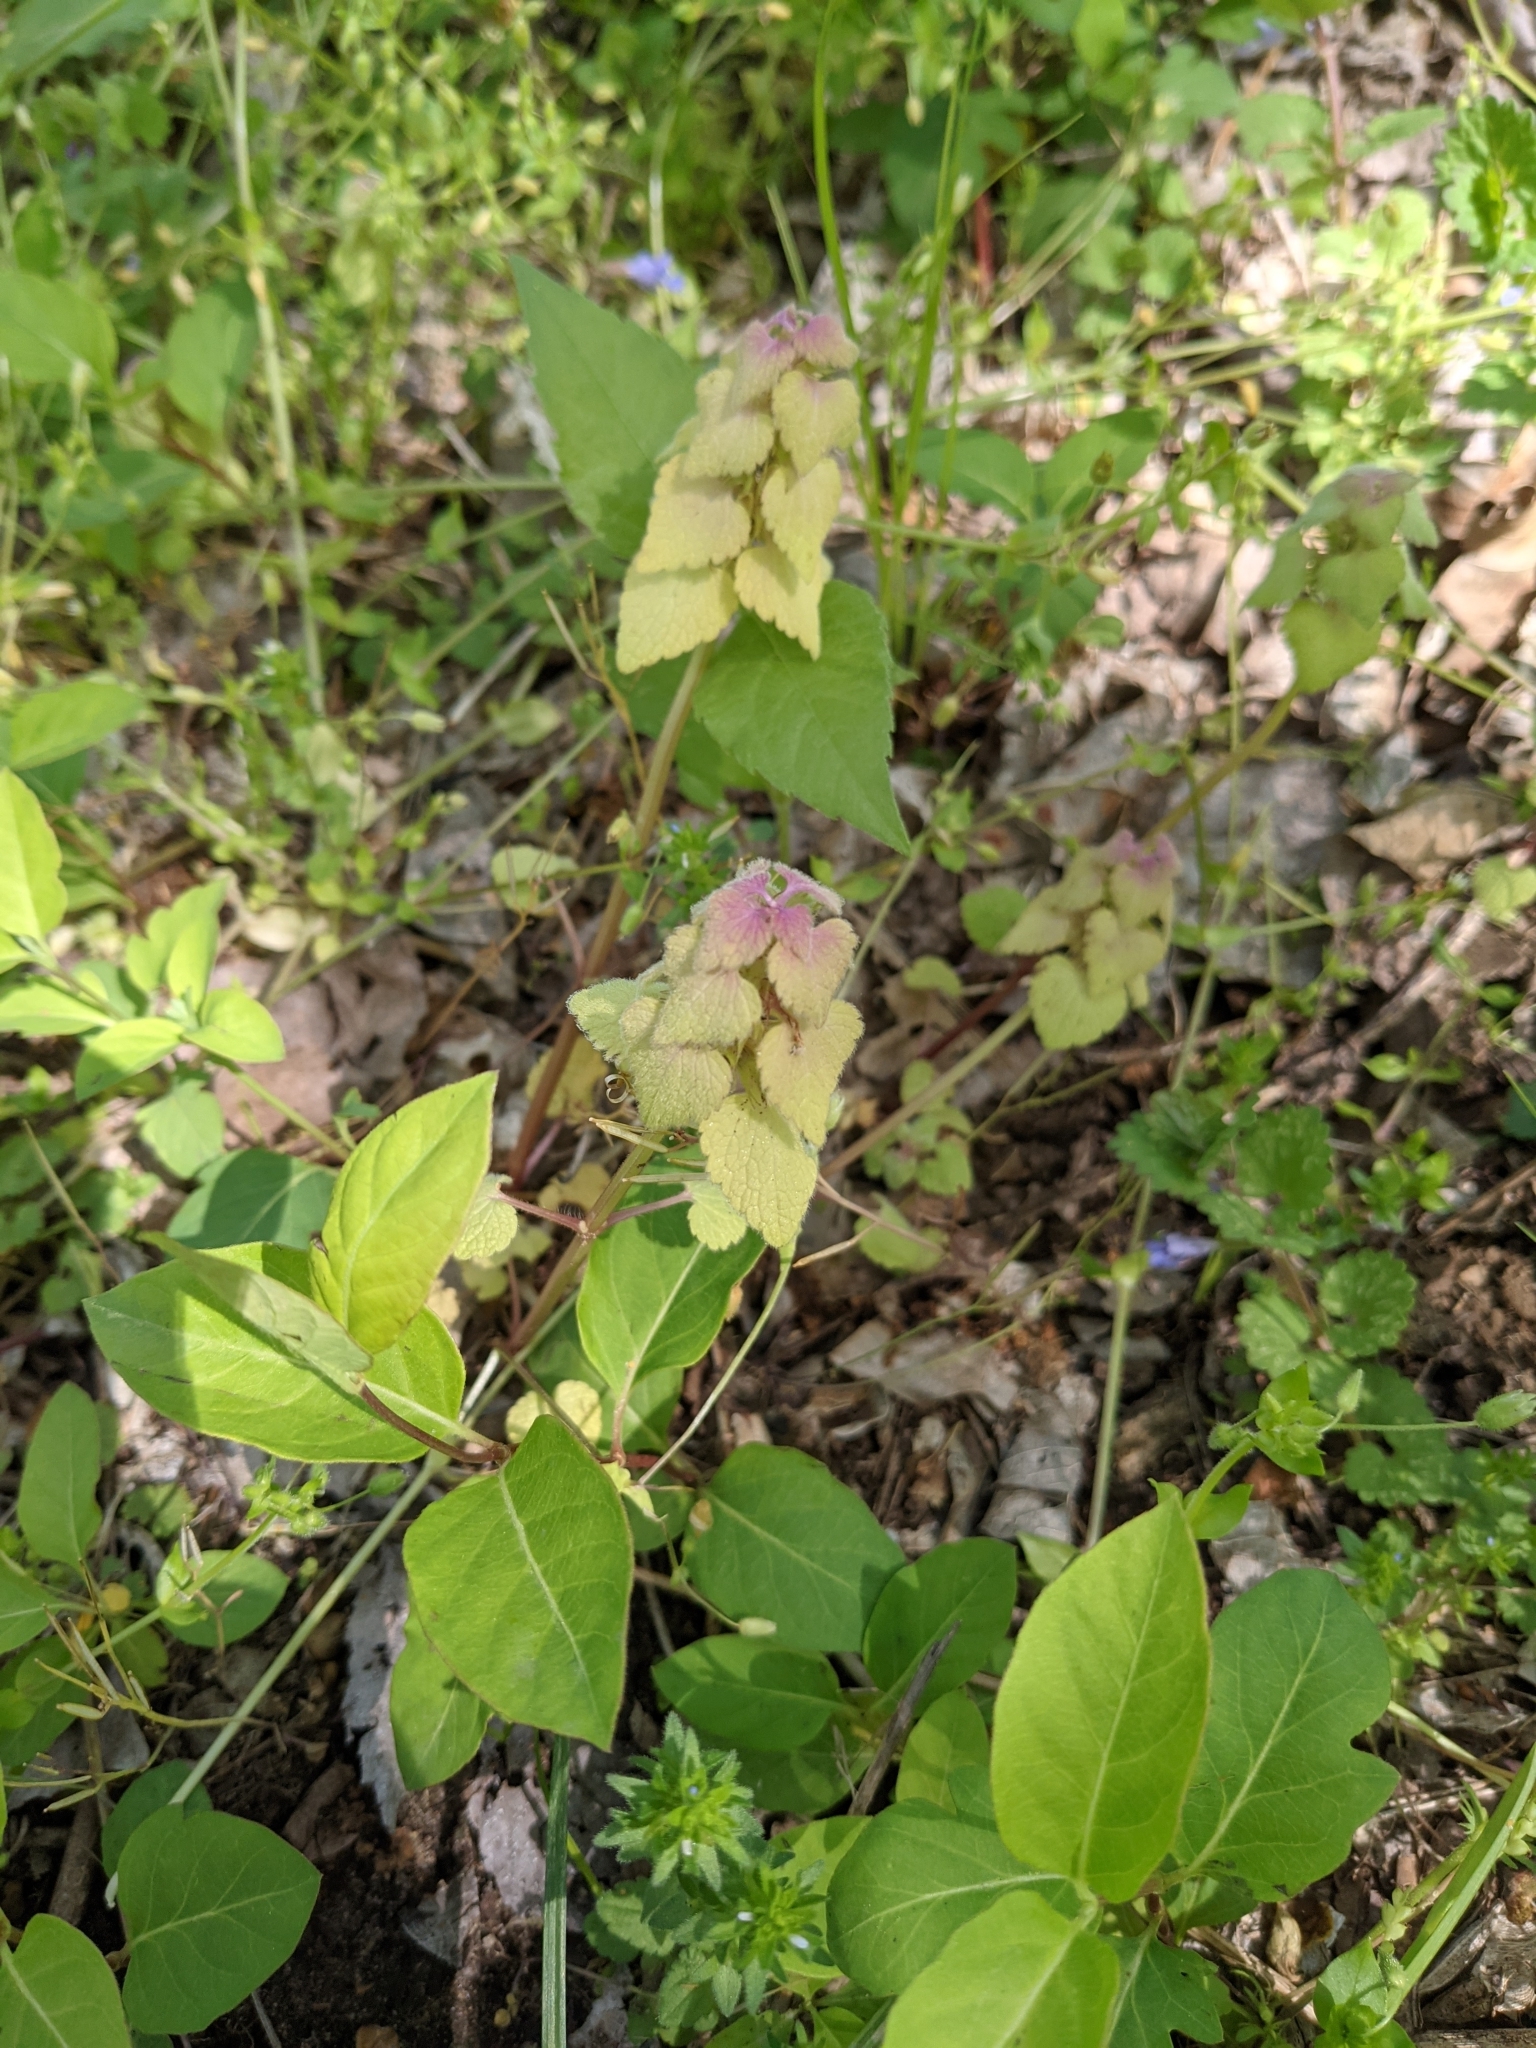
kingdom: Plantae
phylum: Tracheophyta
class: Magnoliopsida
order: Lamiales
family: Lamiaceae
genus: Lamium
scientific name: Lamium purpureum
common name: Red dead-nettle
